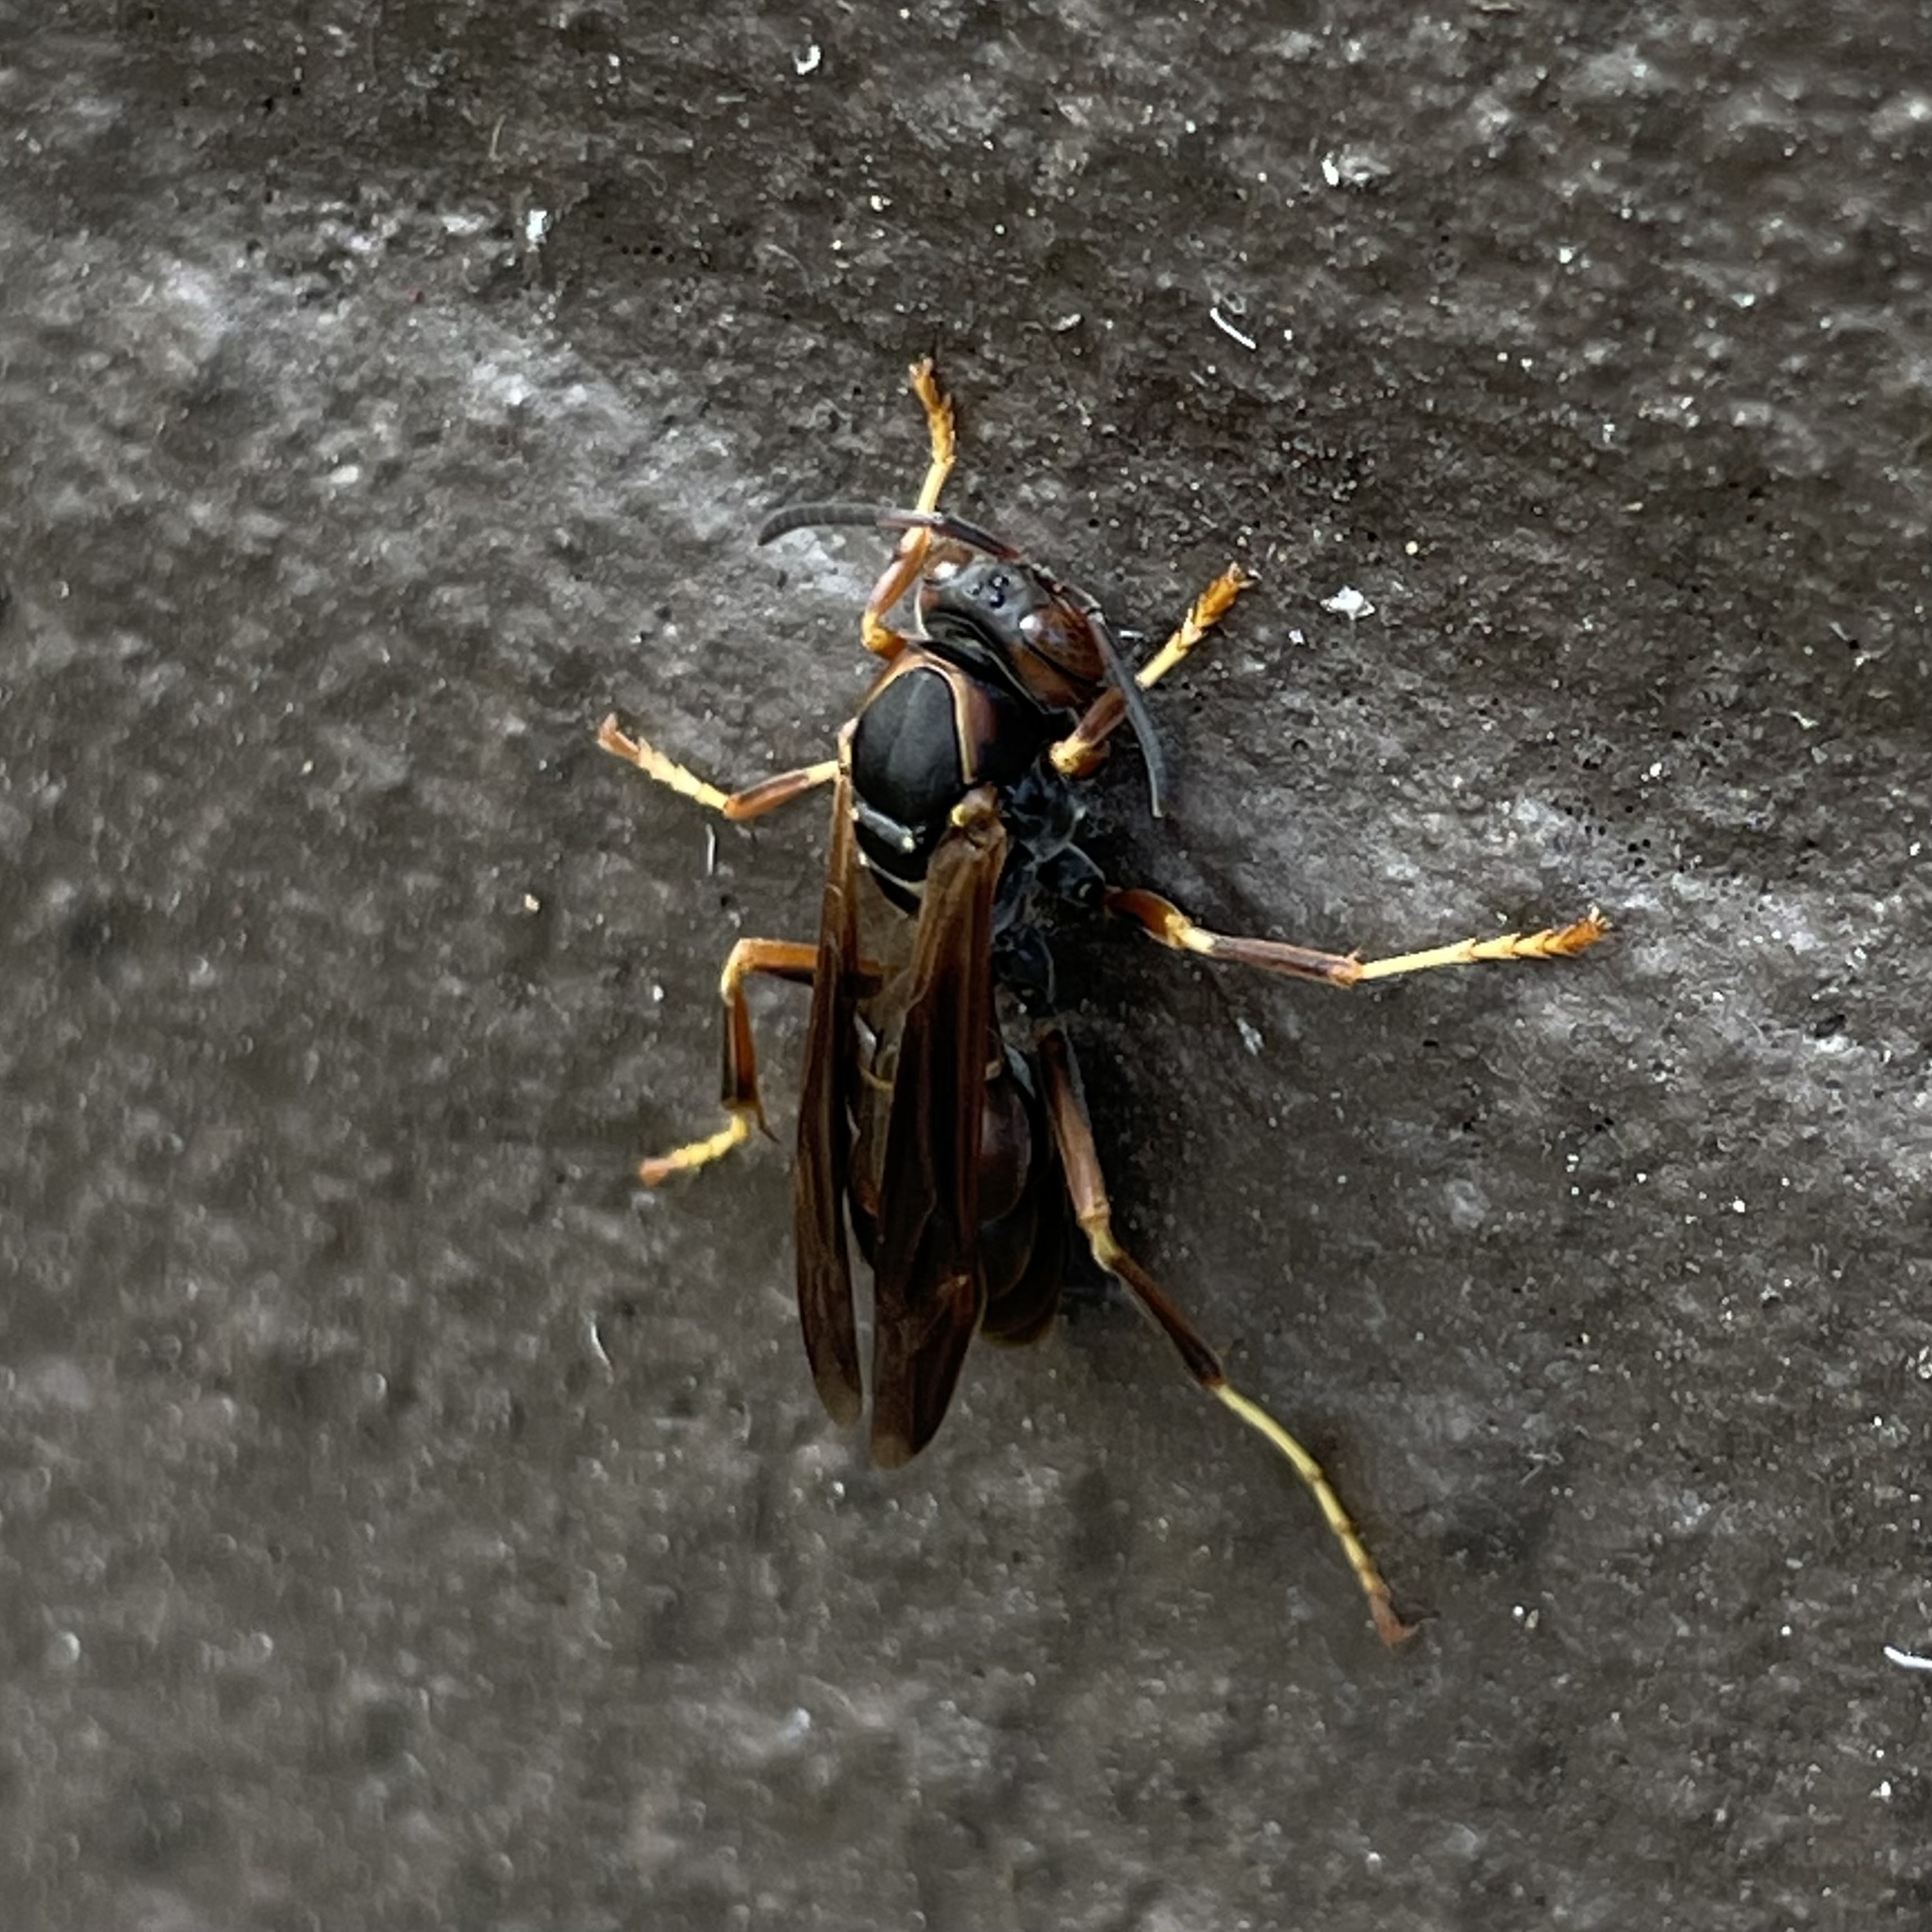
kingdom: Animalia
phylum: Arthropoda
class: Insecta
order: Hymenoptera
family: Eumenidae
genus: Polistes
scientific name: Polistes fuscatus
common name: Dark paper wasp
